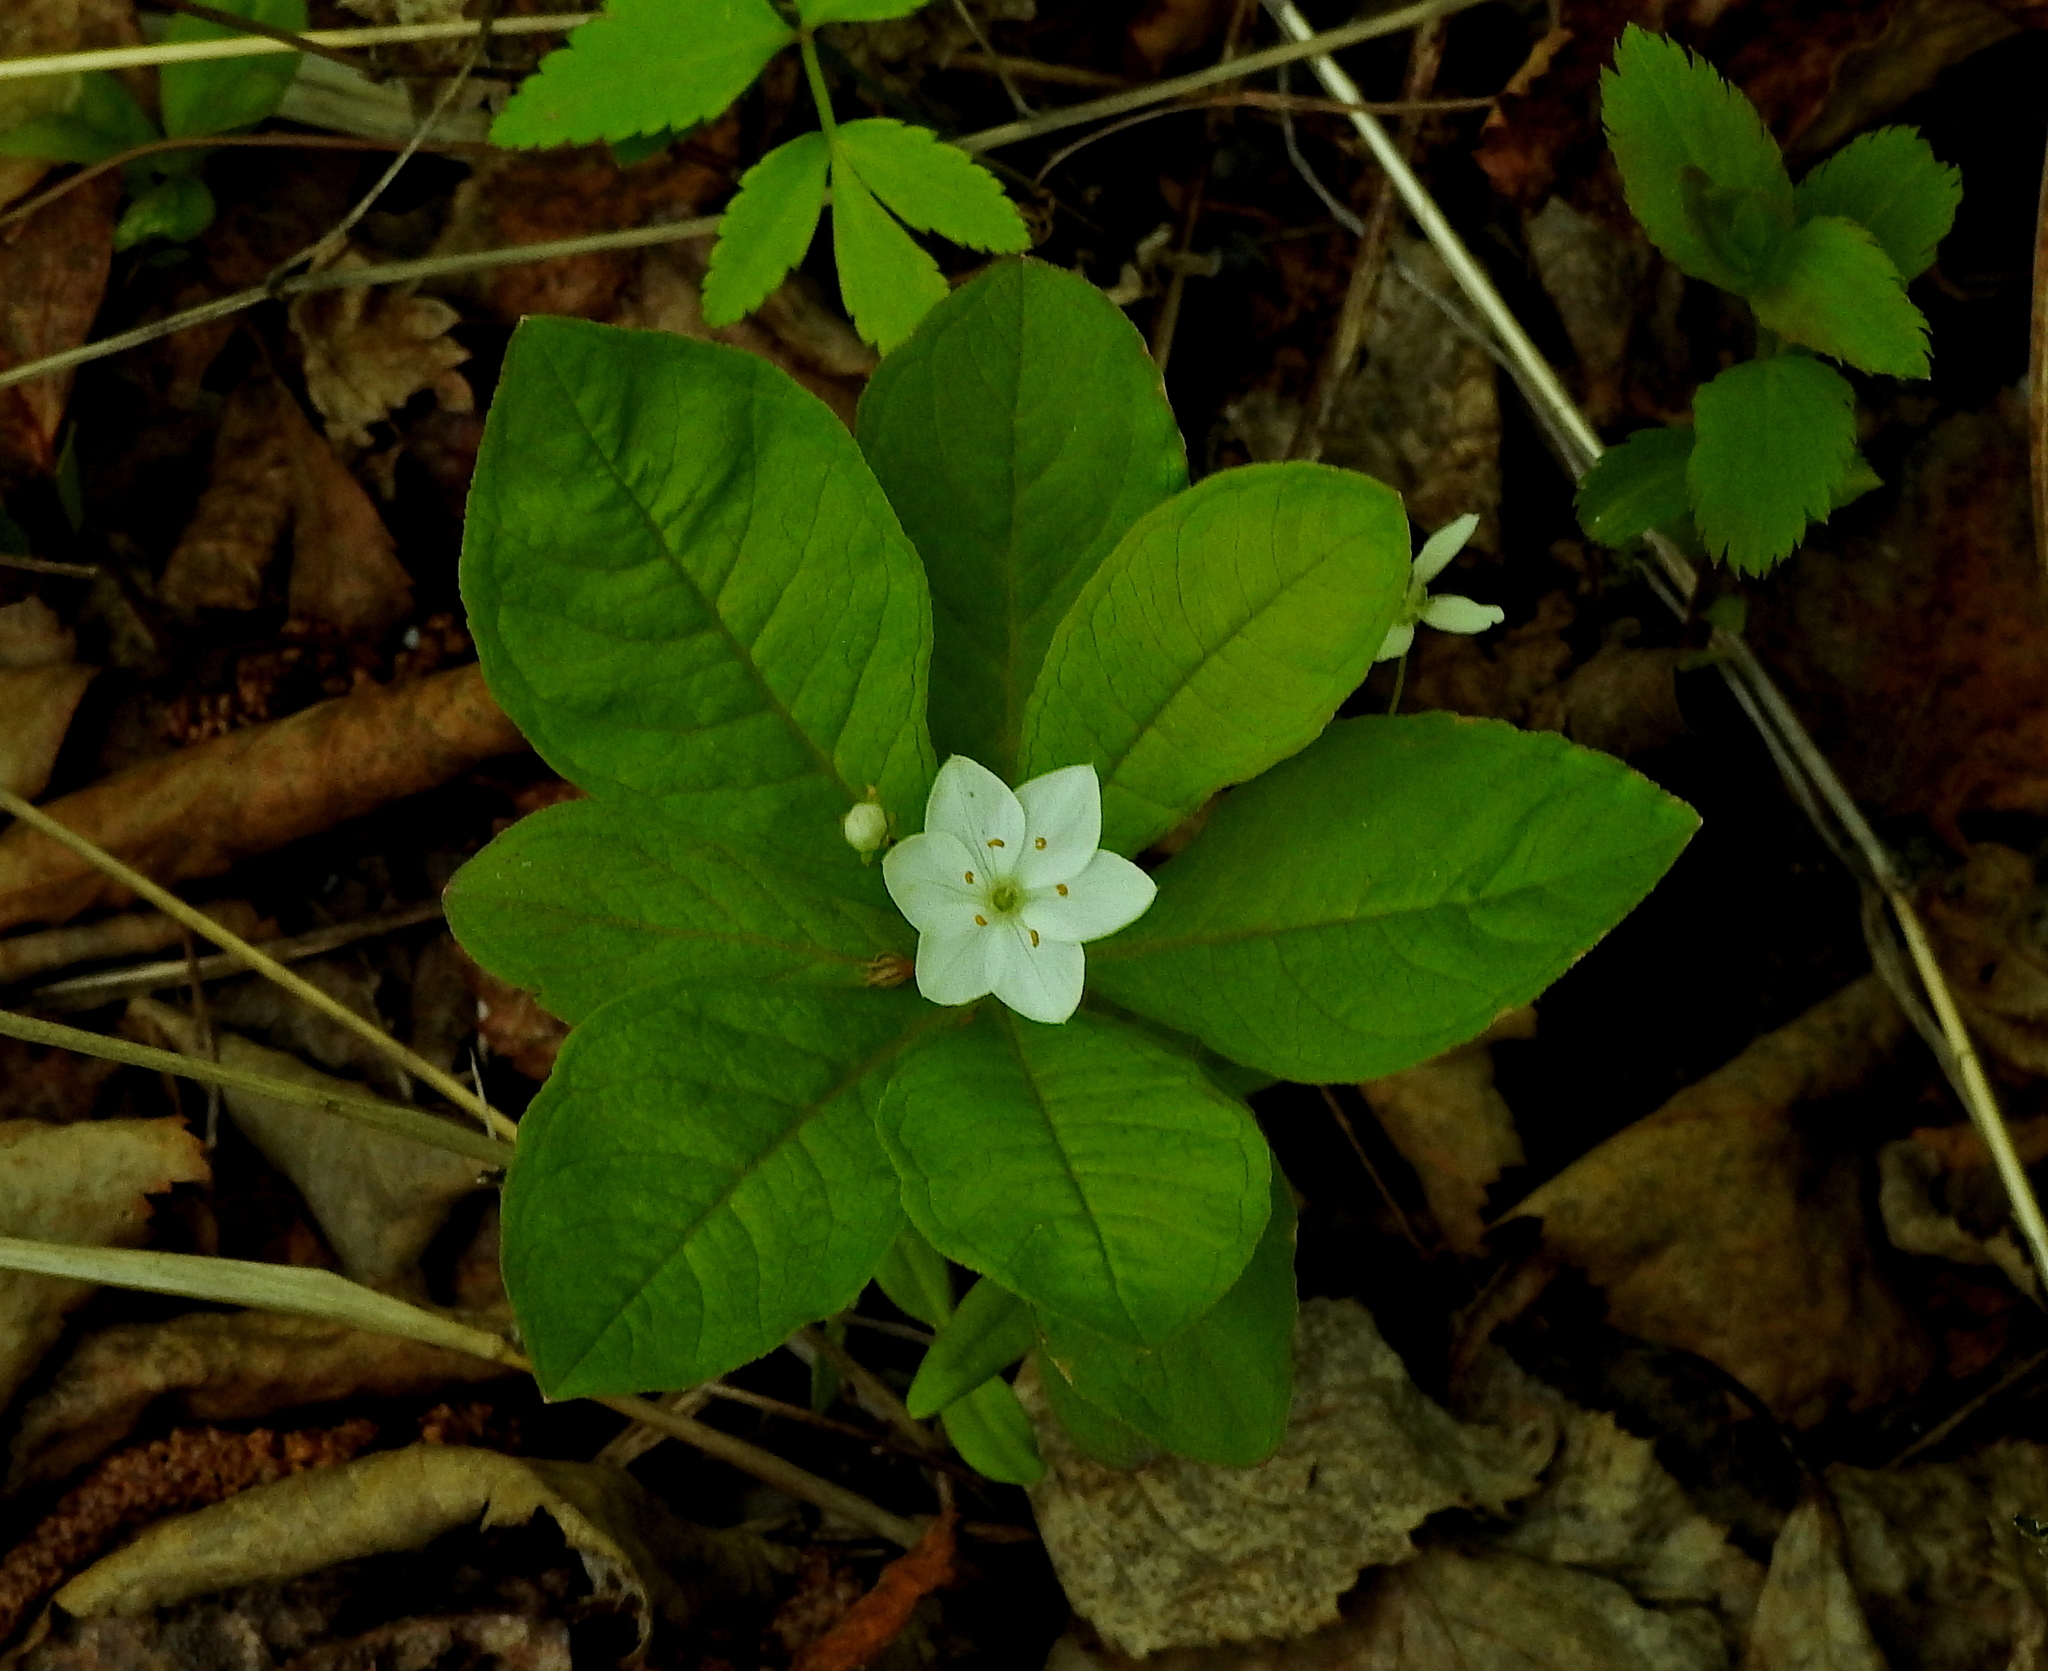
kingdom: Plantae
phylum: Tracheophyta
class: Magnoliopsida
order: Ericales
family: Primulaceae
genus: Lysimachia
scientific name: Lysimachia europaea
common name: Arctic starflower
